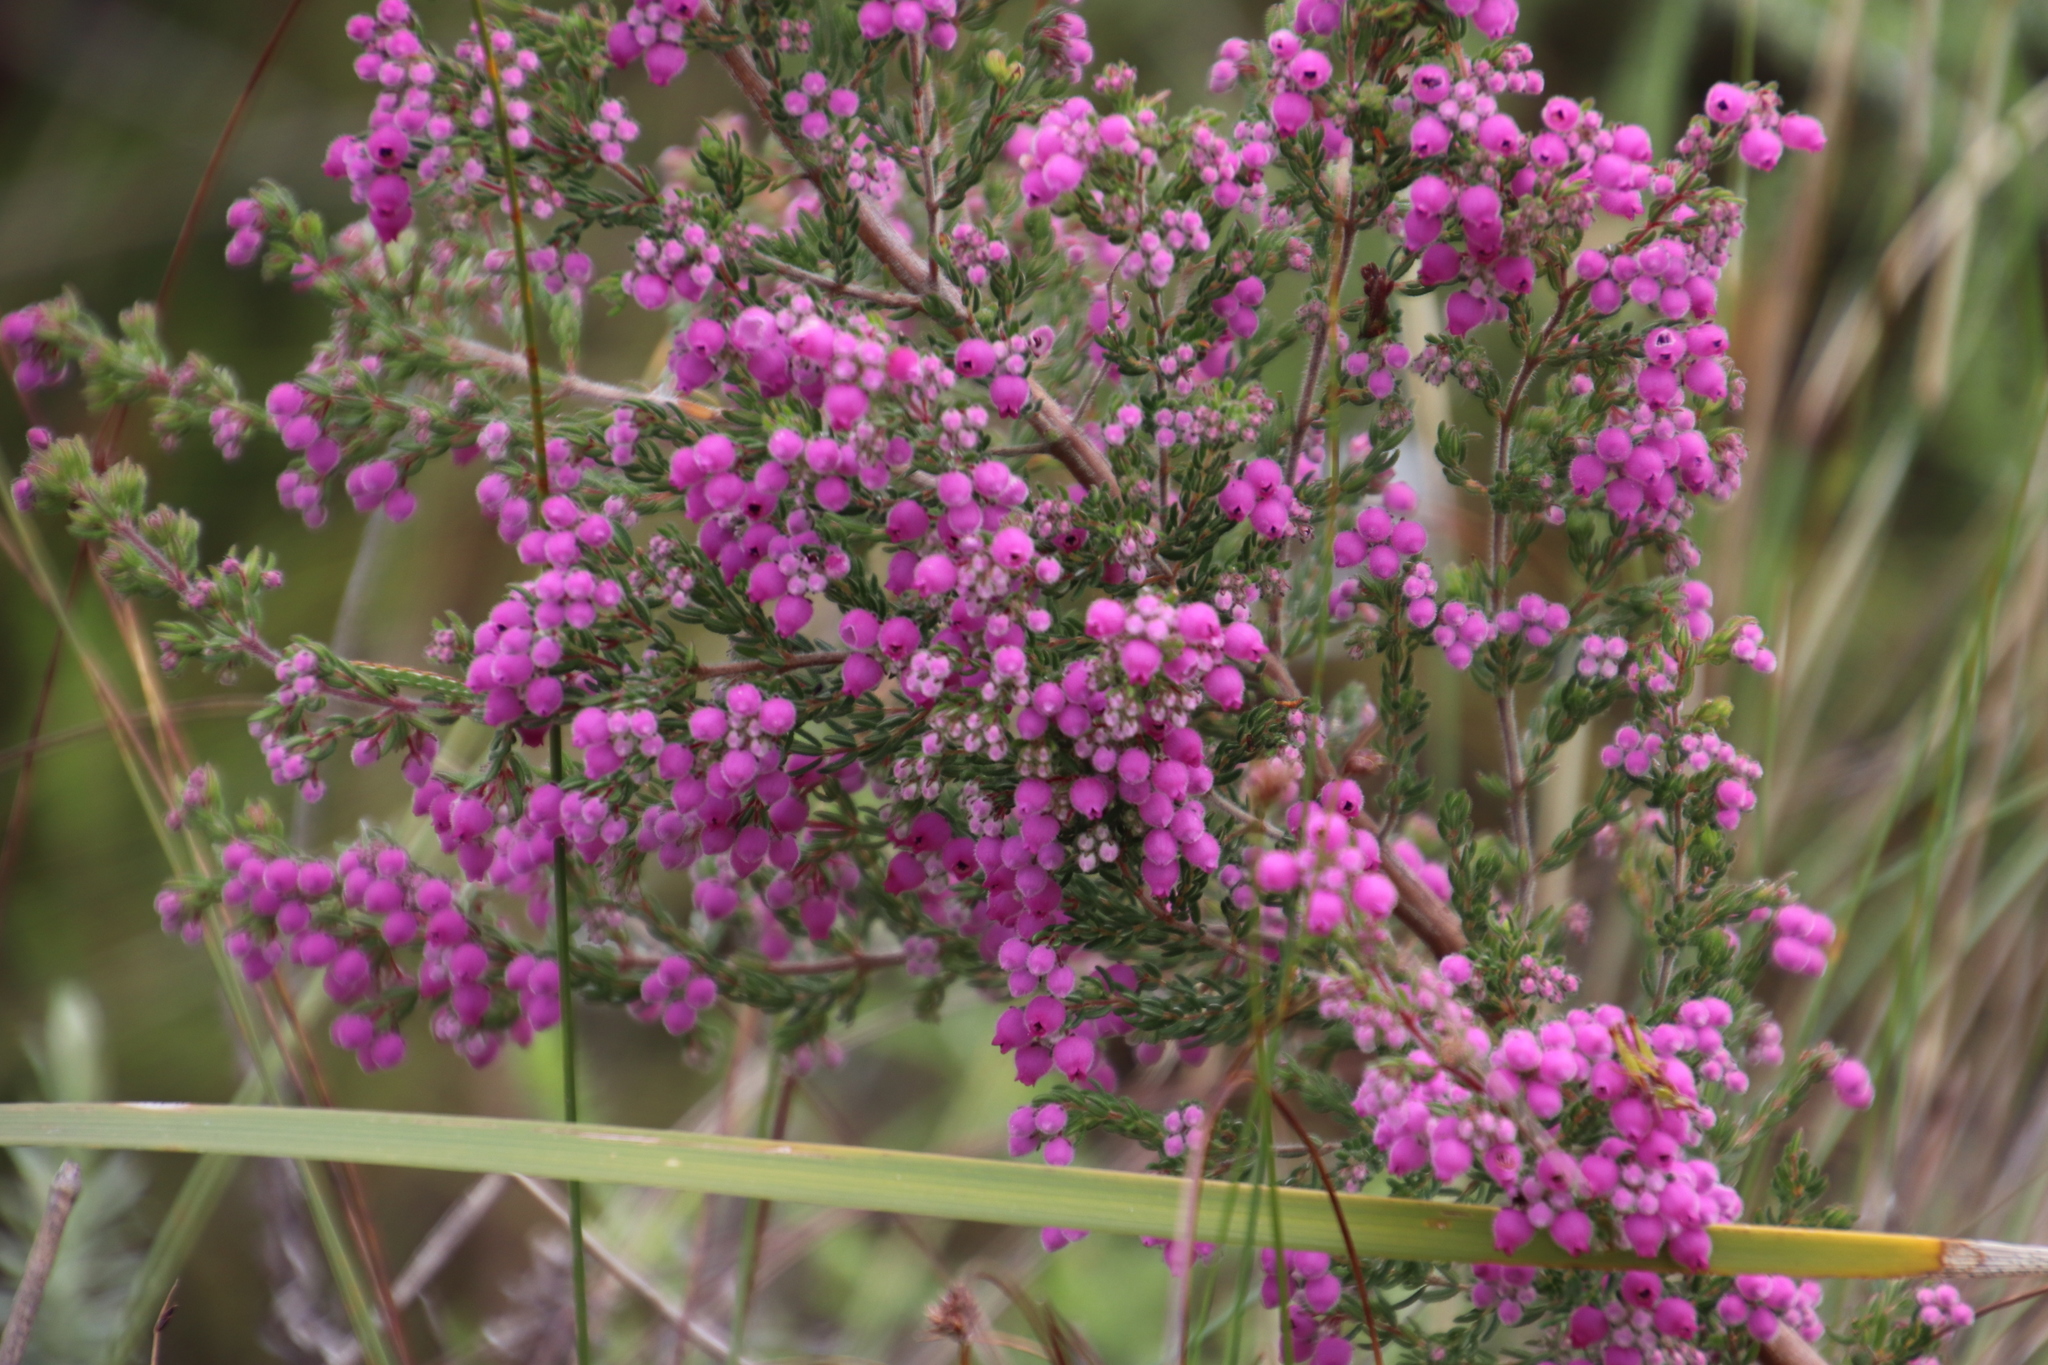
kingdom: Plantae
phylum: Tracheophyta
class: Magnoliopsida
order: Ericales
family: Ericaceae
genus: Erica
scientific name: Erica hirtiflora
